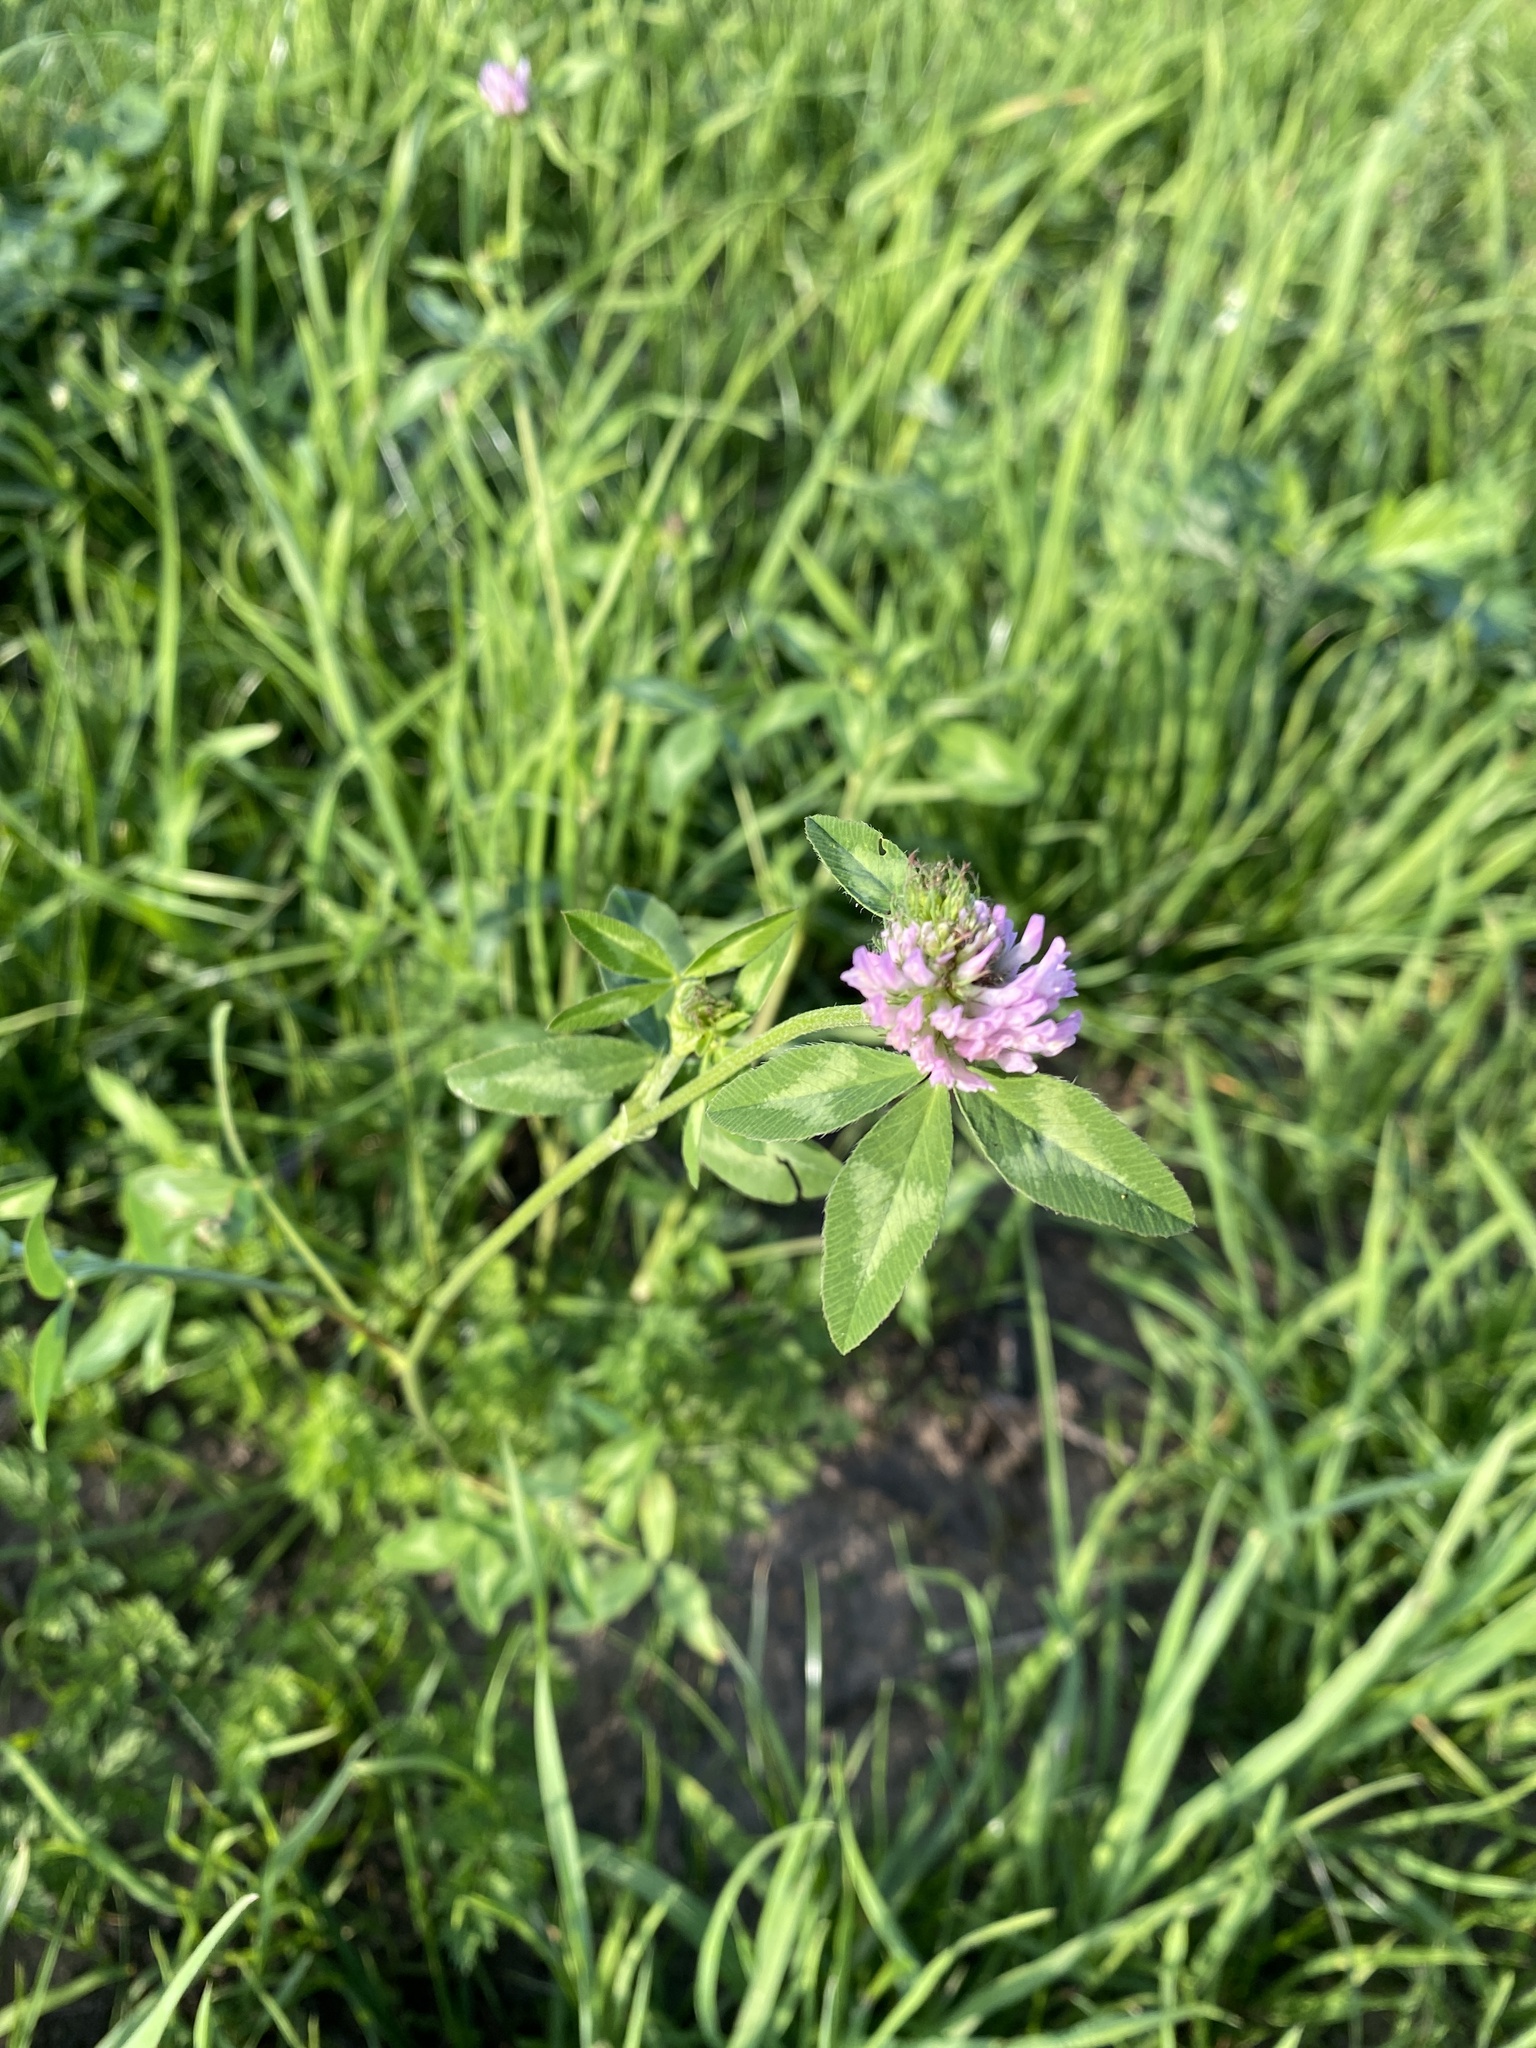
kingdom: Plantae
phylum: Tracheophyta
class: Magnoliopsida
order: Fabales
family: Fabaceae
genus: Trifolium
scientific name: Trifolium pratense
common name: Red clover
